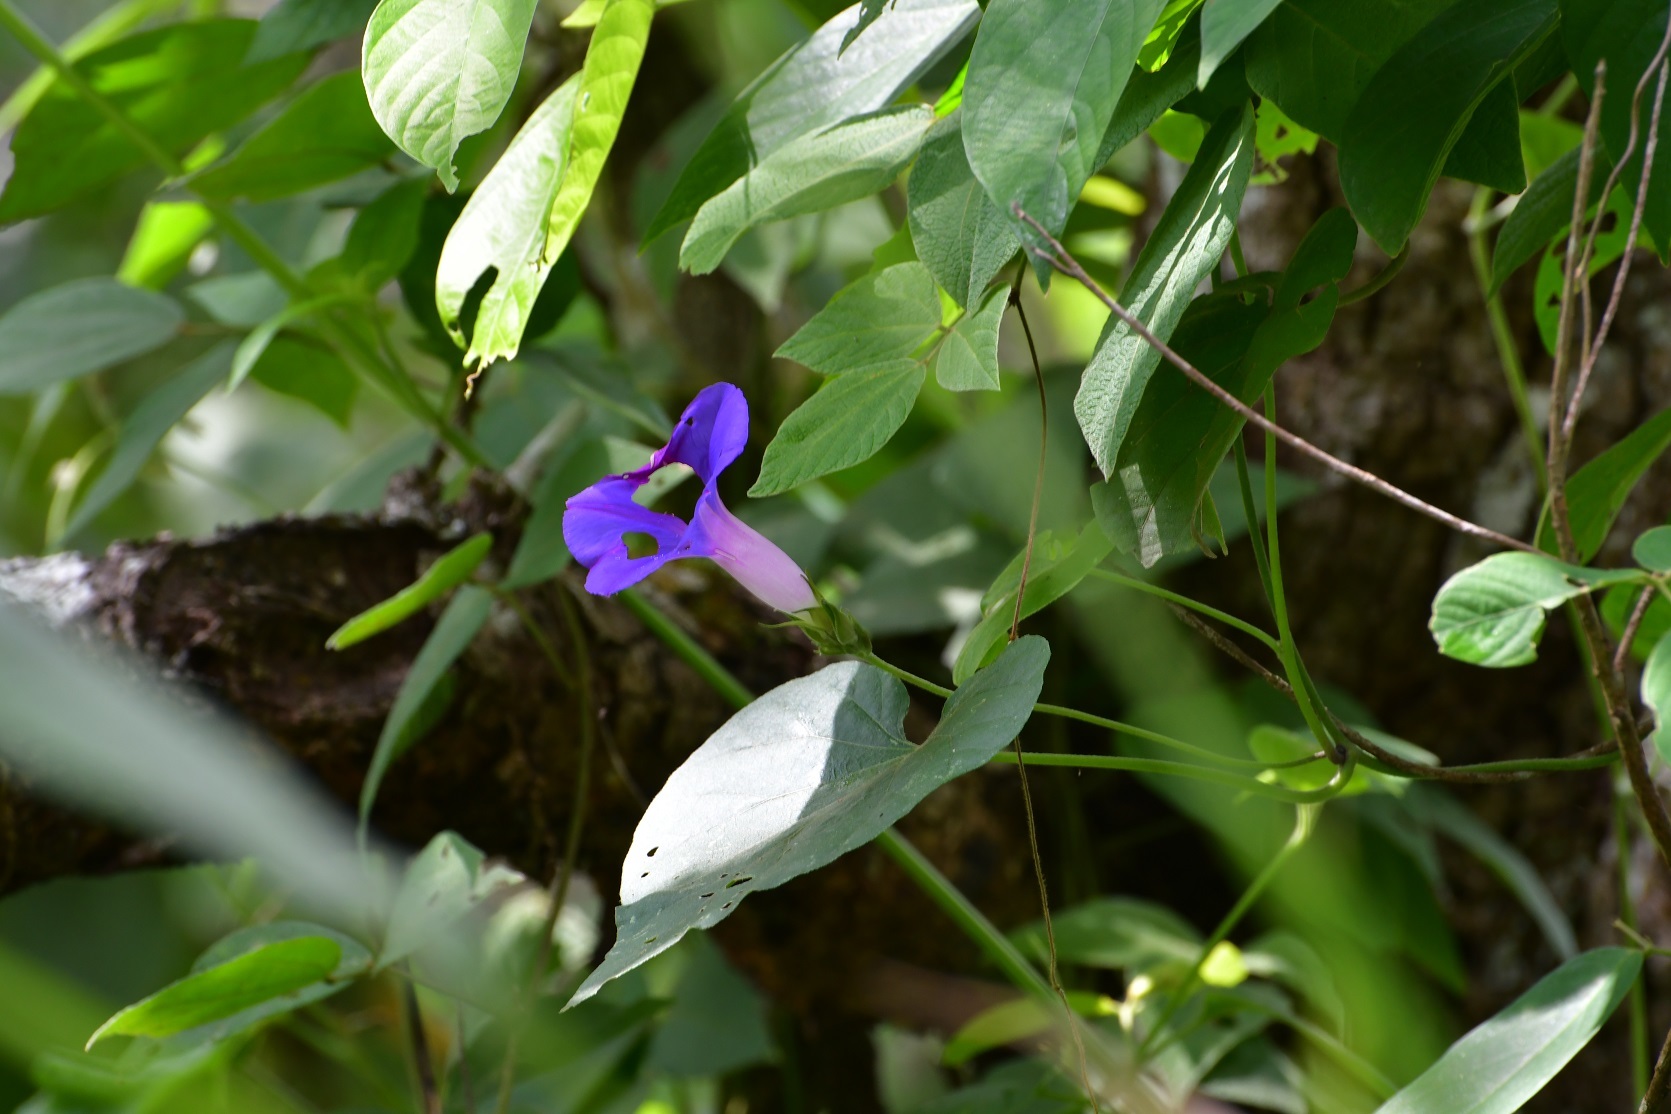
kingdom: Plantae
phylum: Tracheophyta
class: Magnoliopsida
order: Solanales
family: Convolvulaceae
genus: Ipomoea
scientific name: Ipomoea indica
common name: Blue dawnflower
